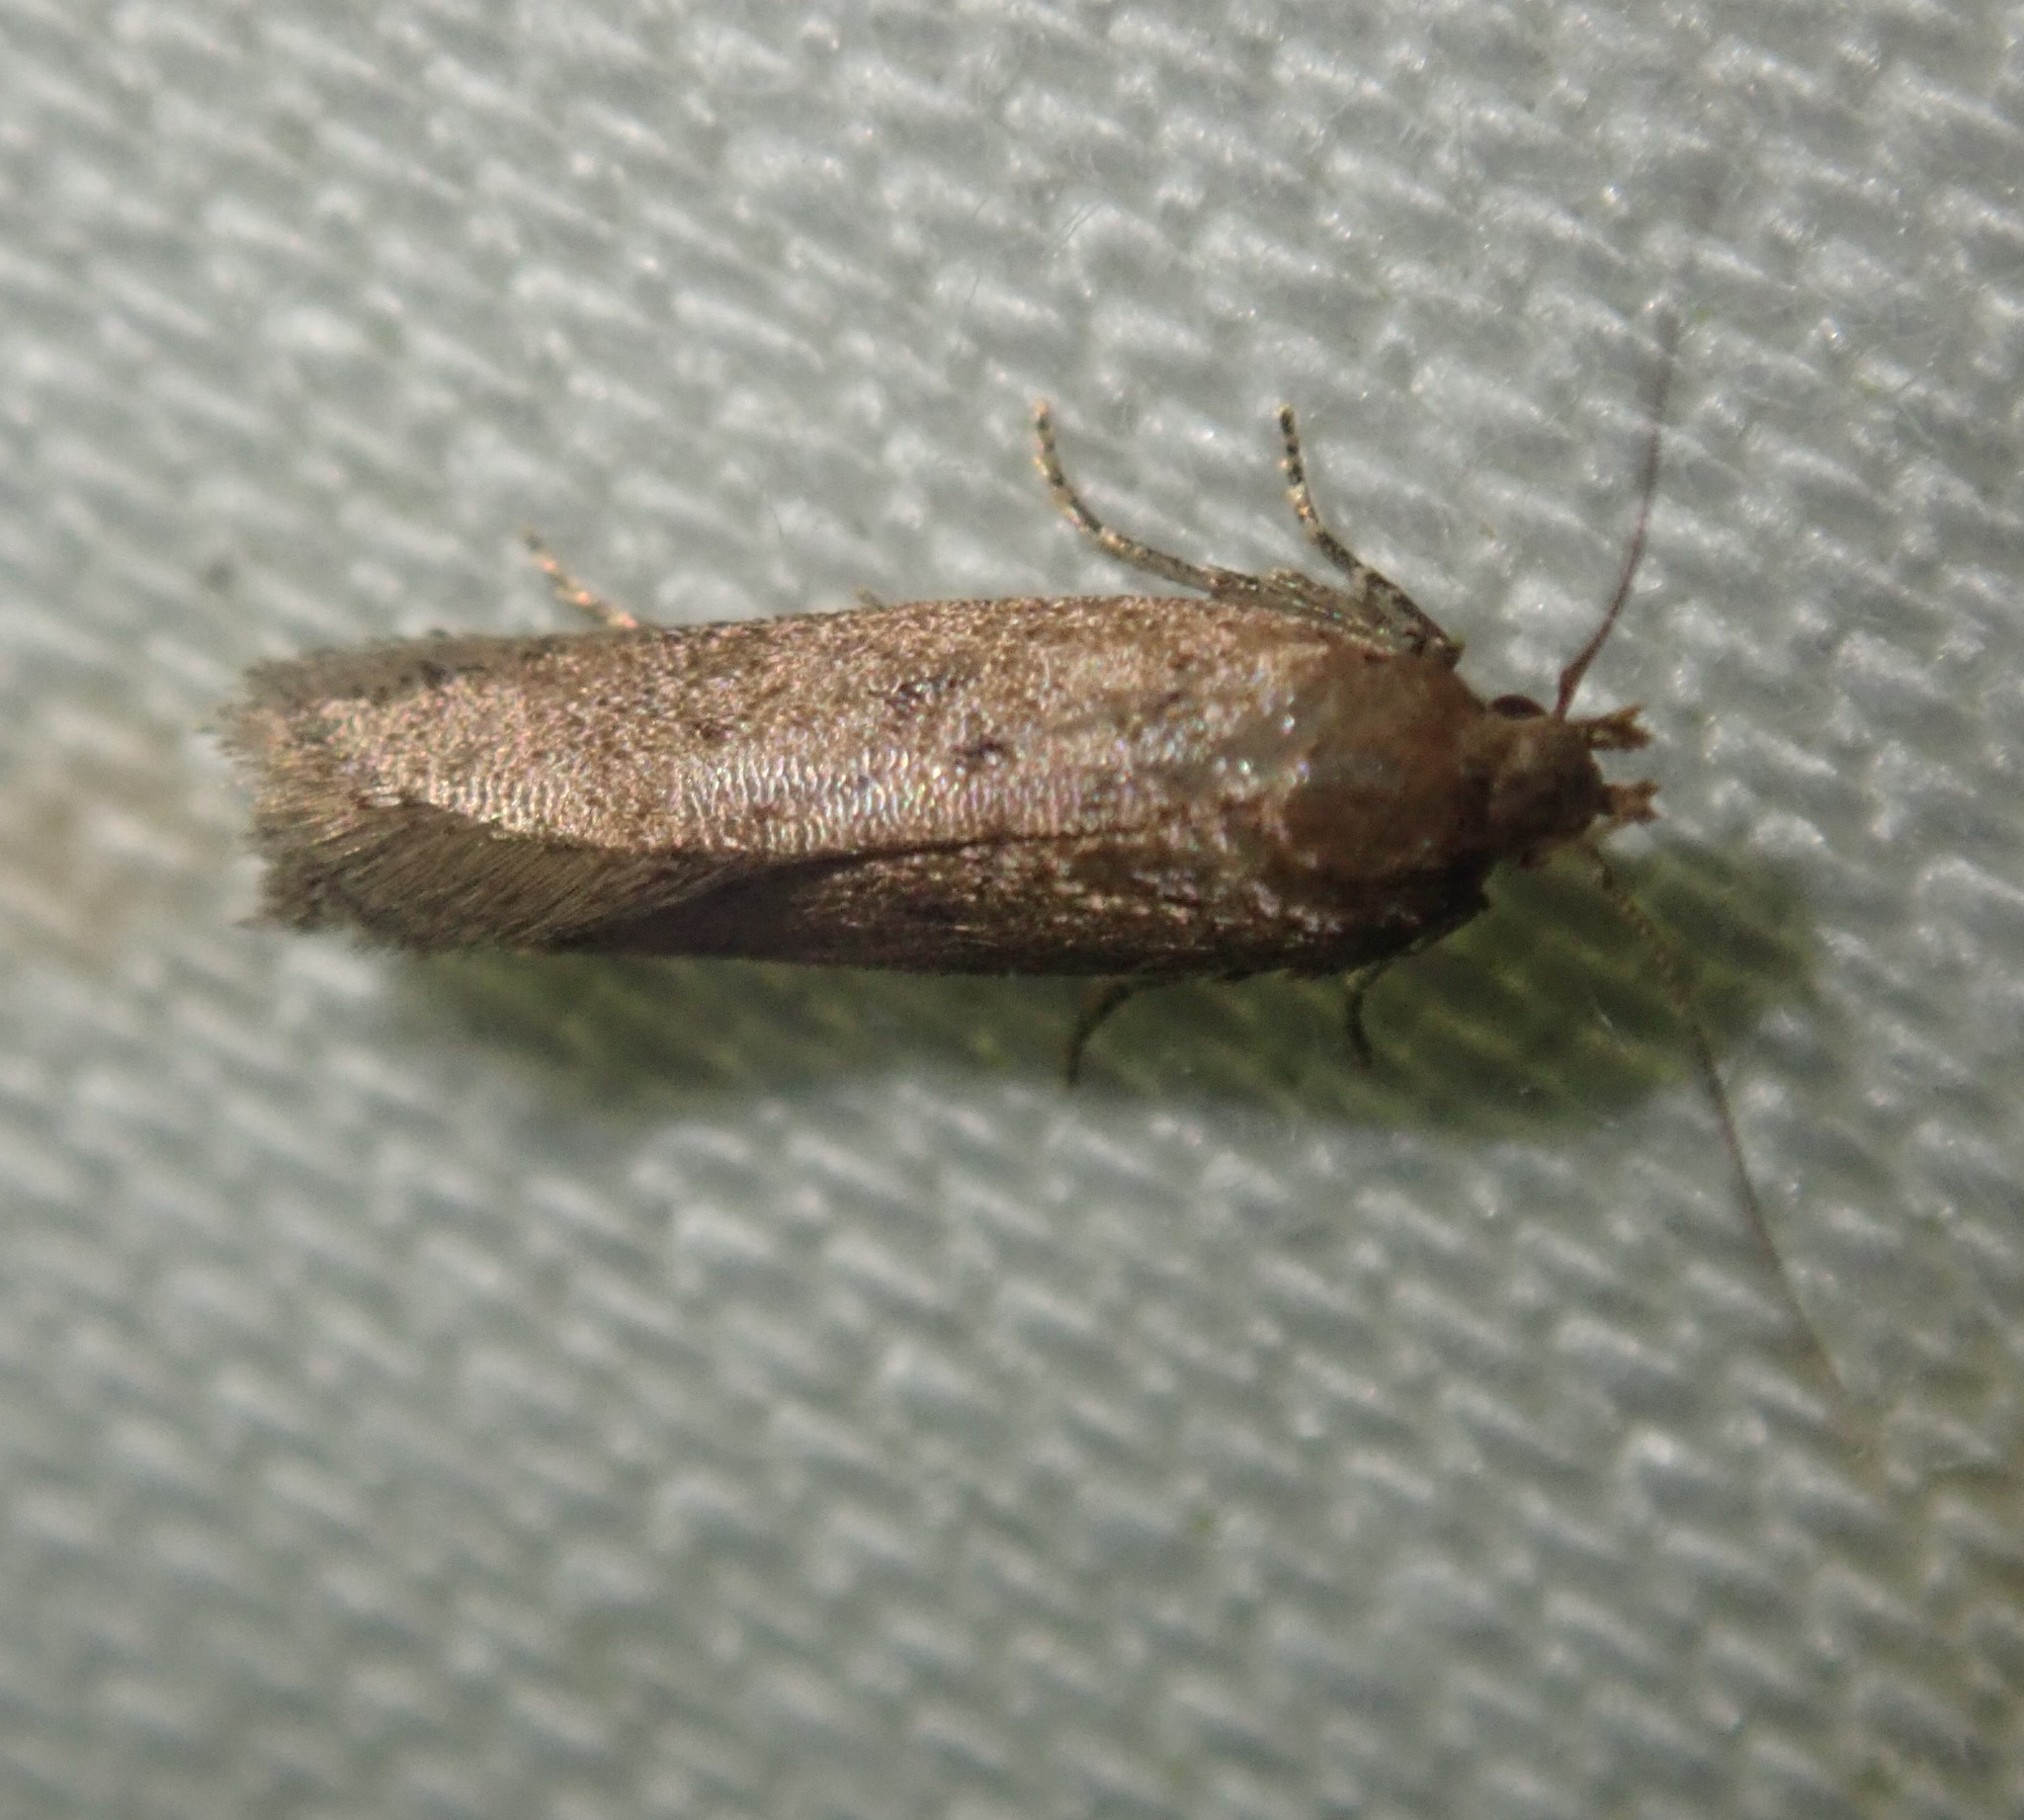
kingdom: Animalia
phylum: Arthropoda
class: Insecta
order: Lepidoptera
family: Gelechiidae
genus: Bryotropha
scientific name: Bryotropha terrella
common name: Cinerous groundling
